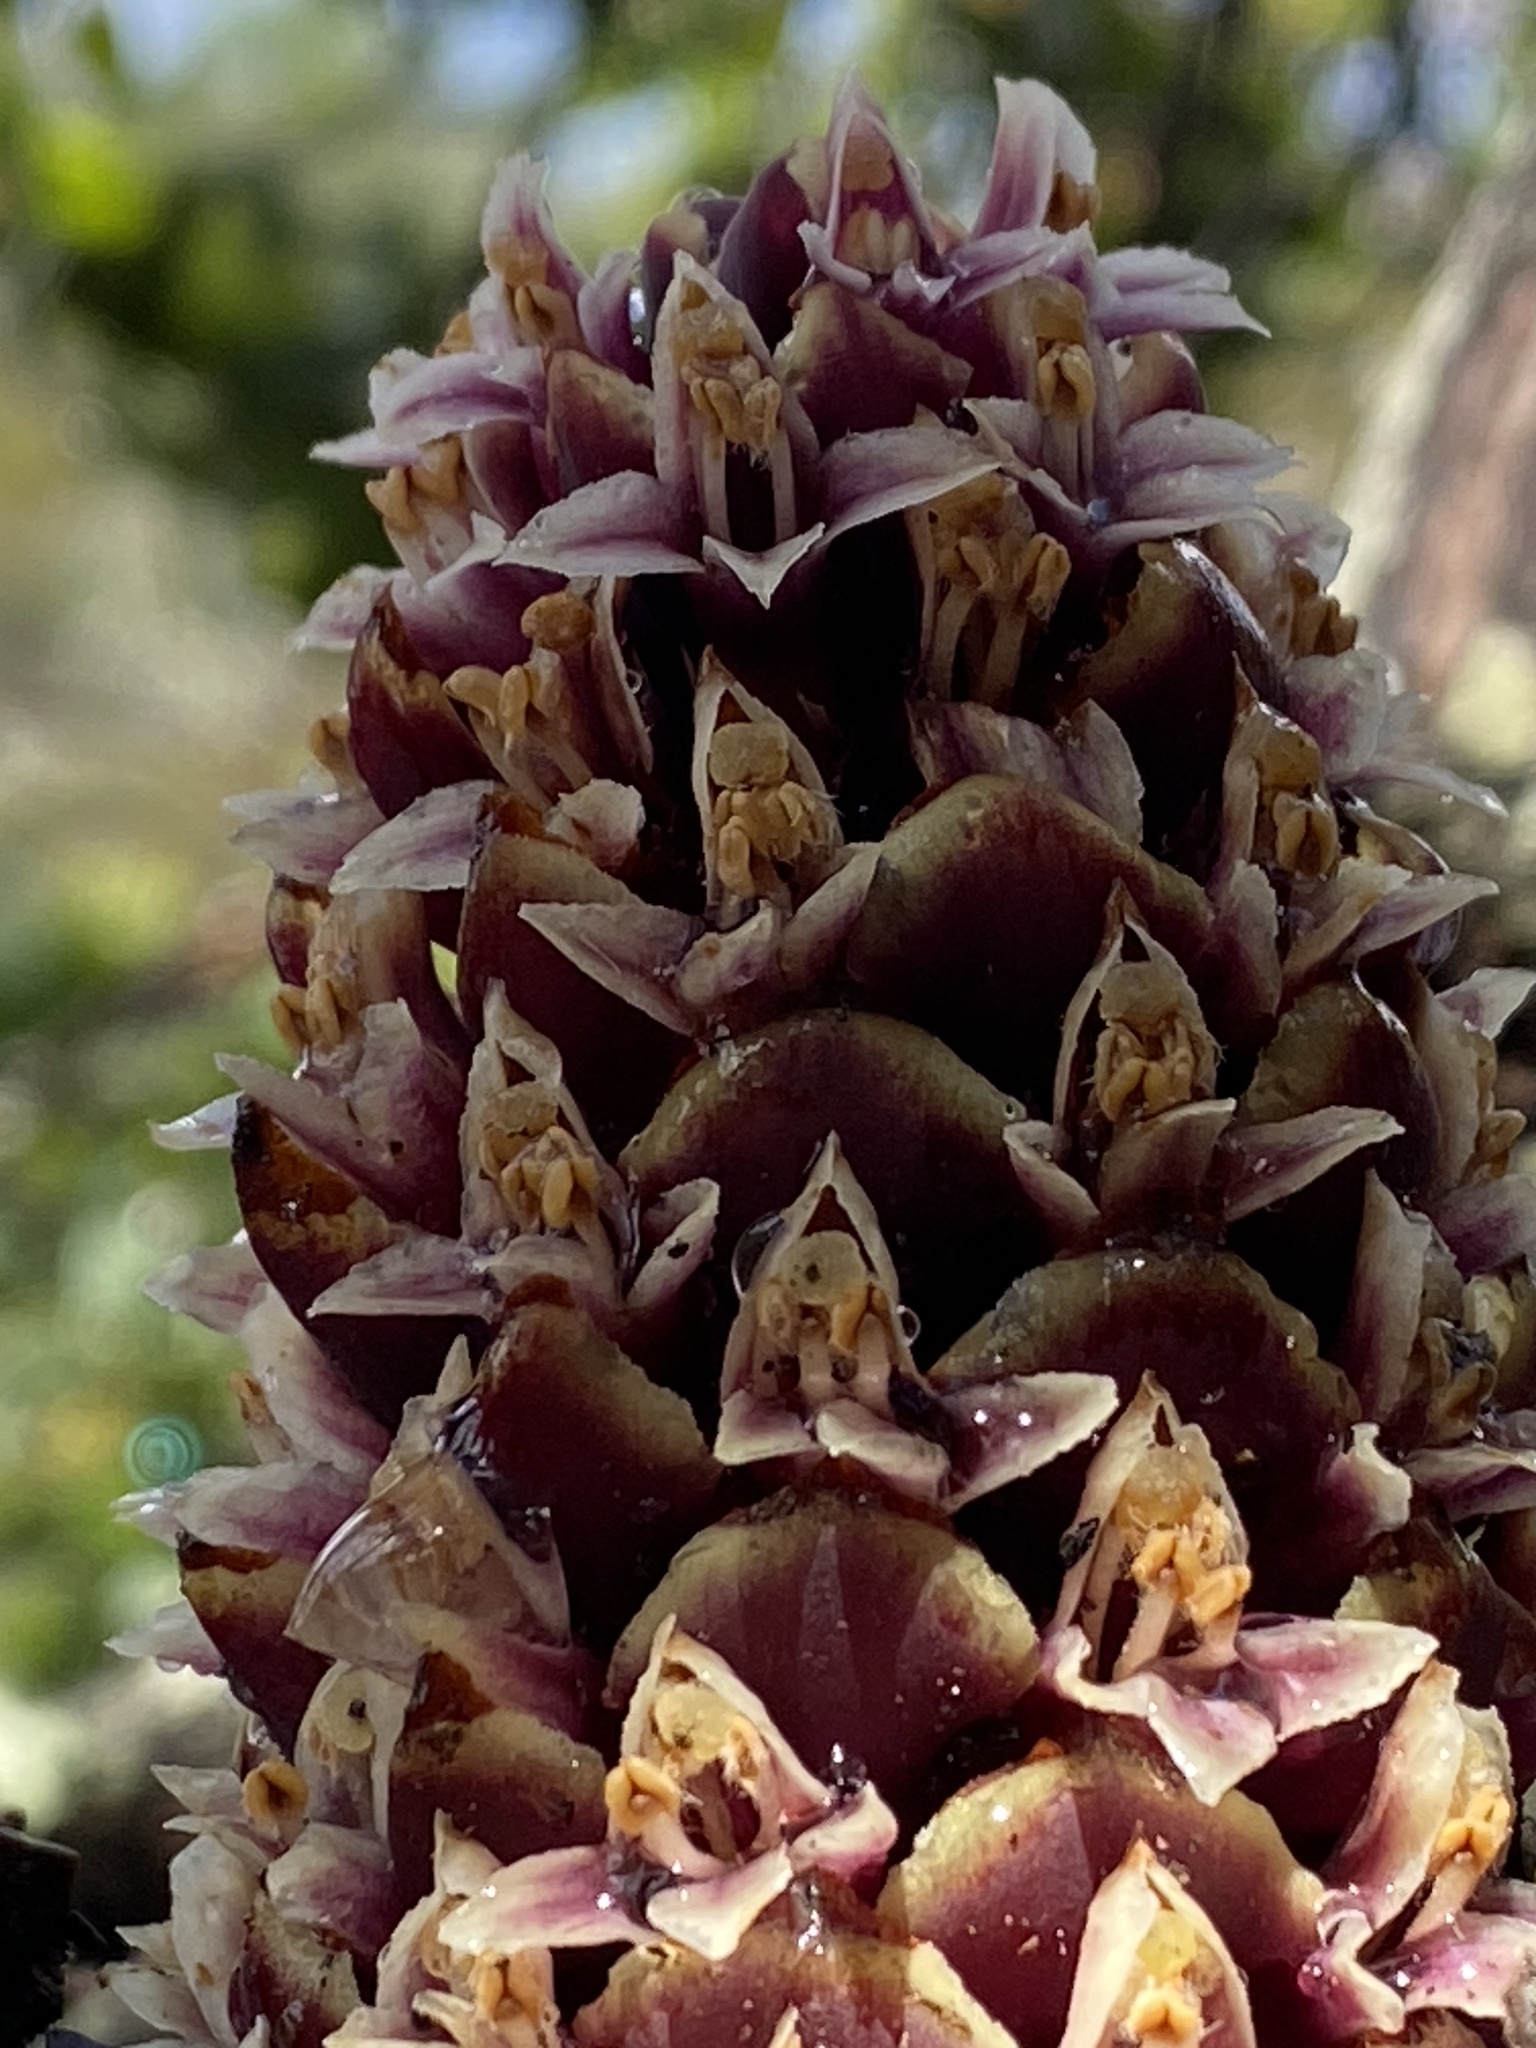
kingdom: Plantae
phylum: Tracheophyta
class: Magnoliopsida
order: Lamiales
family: Orobanchaceae
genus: Kopsiopsis
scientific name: Kopsiopsis strobilacea
